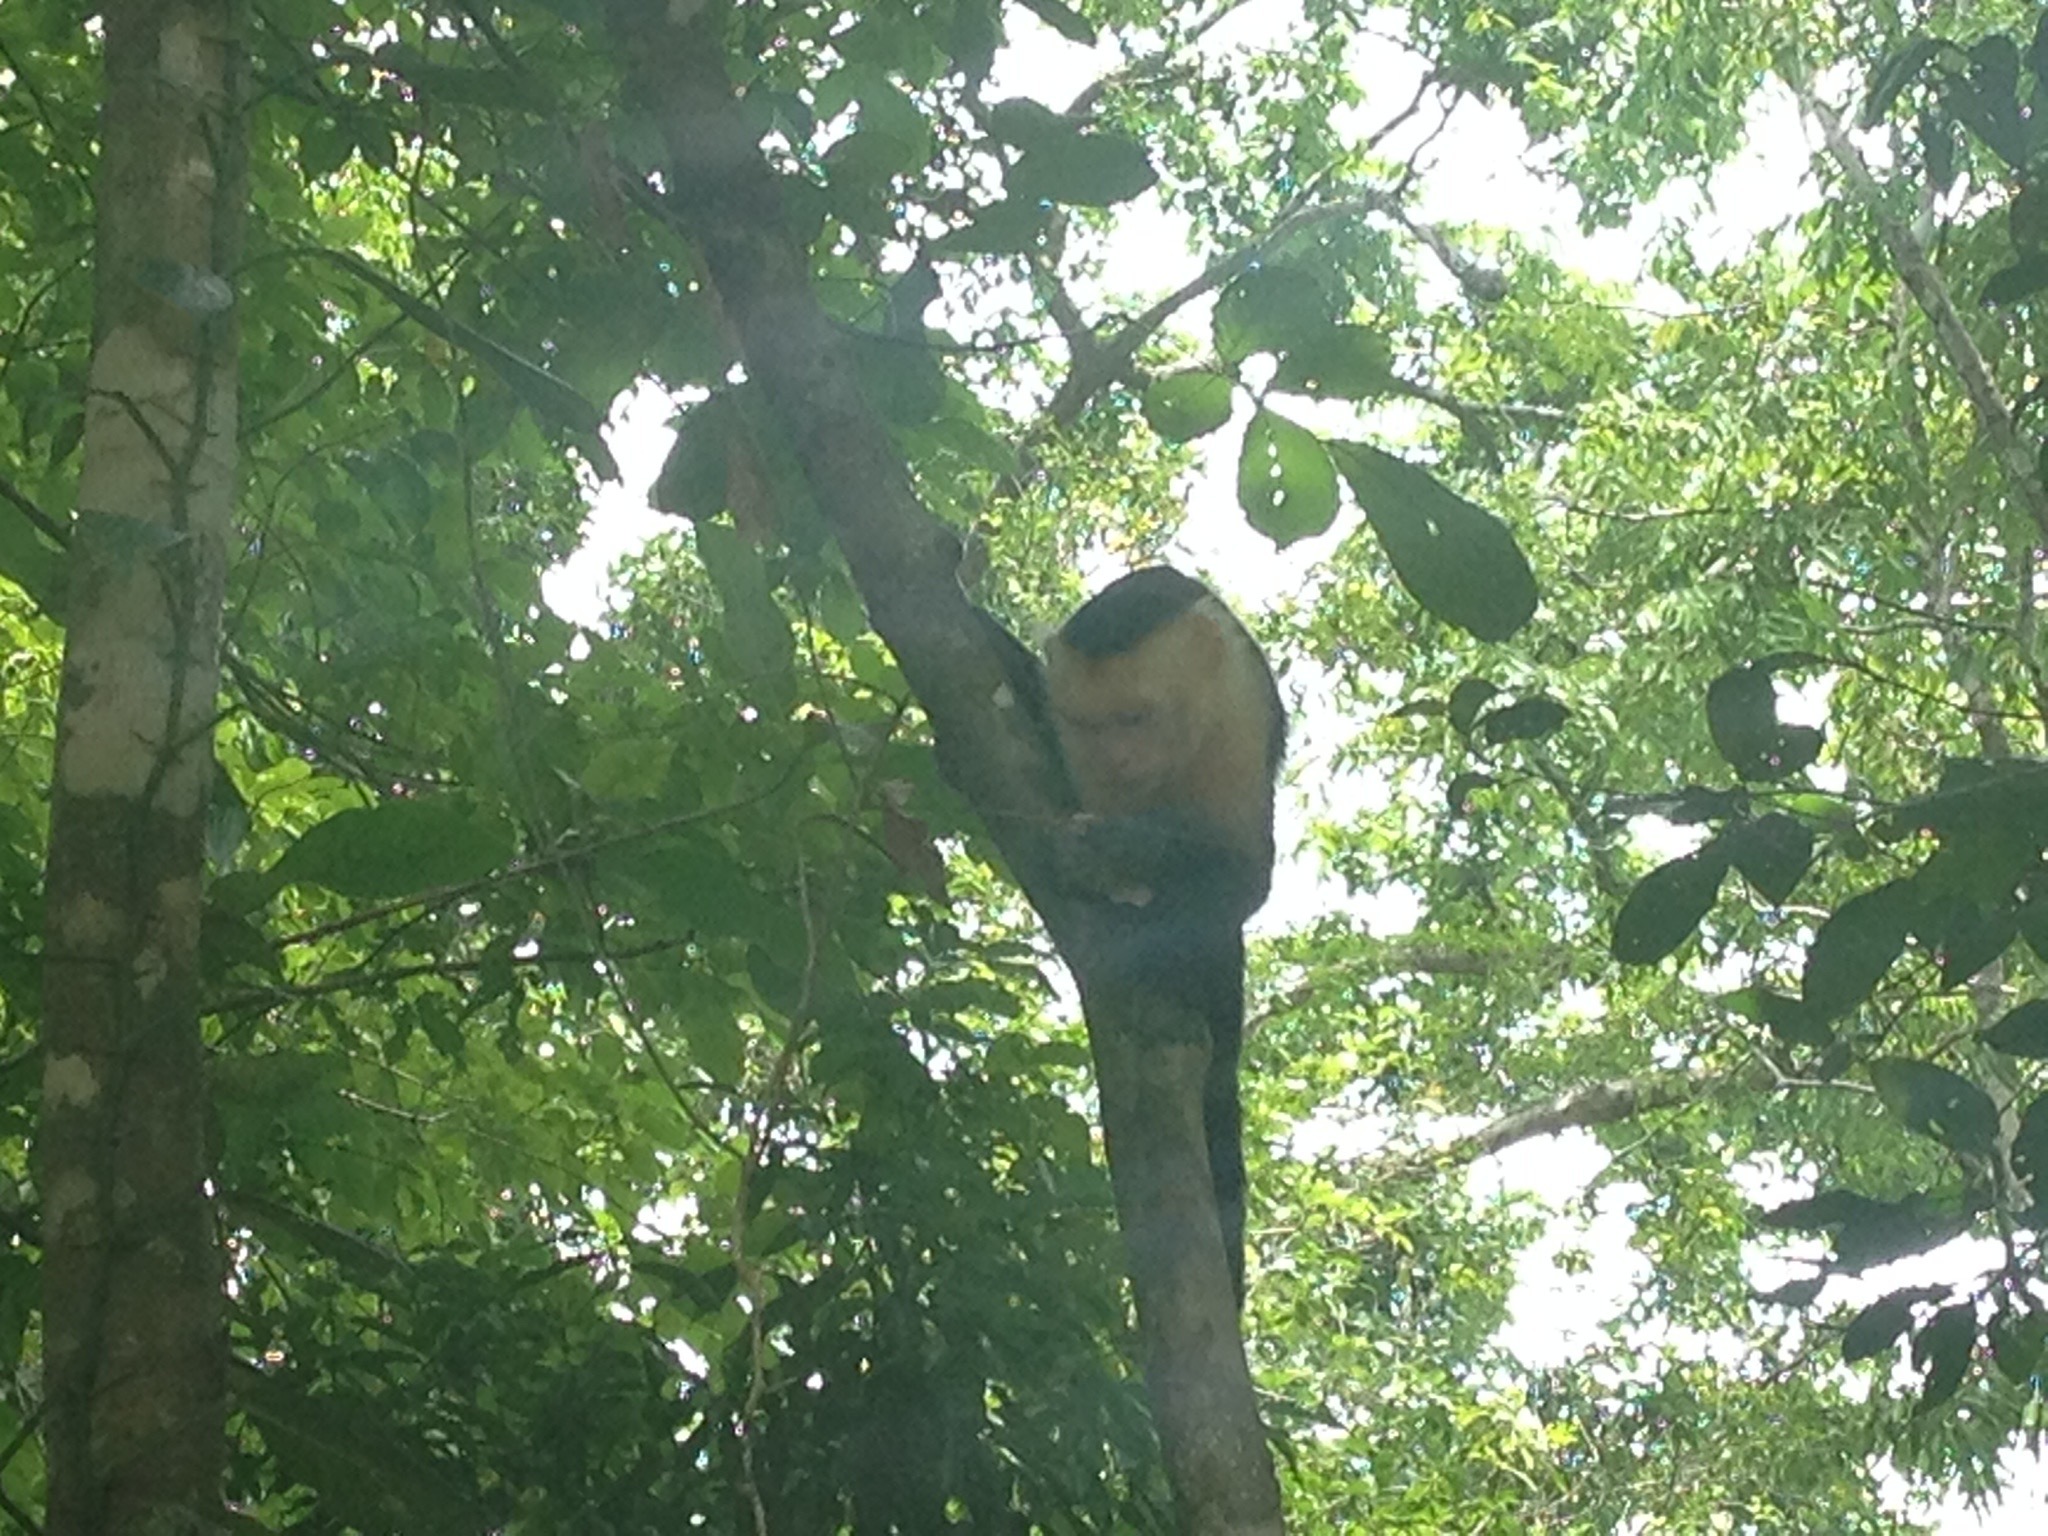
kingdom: Animalia
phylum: Chordata
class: Mammalia
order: Primates
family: Cebidae
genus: Cebus
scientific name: Cebus imitator
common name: Panamanian white-faced capuchin
